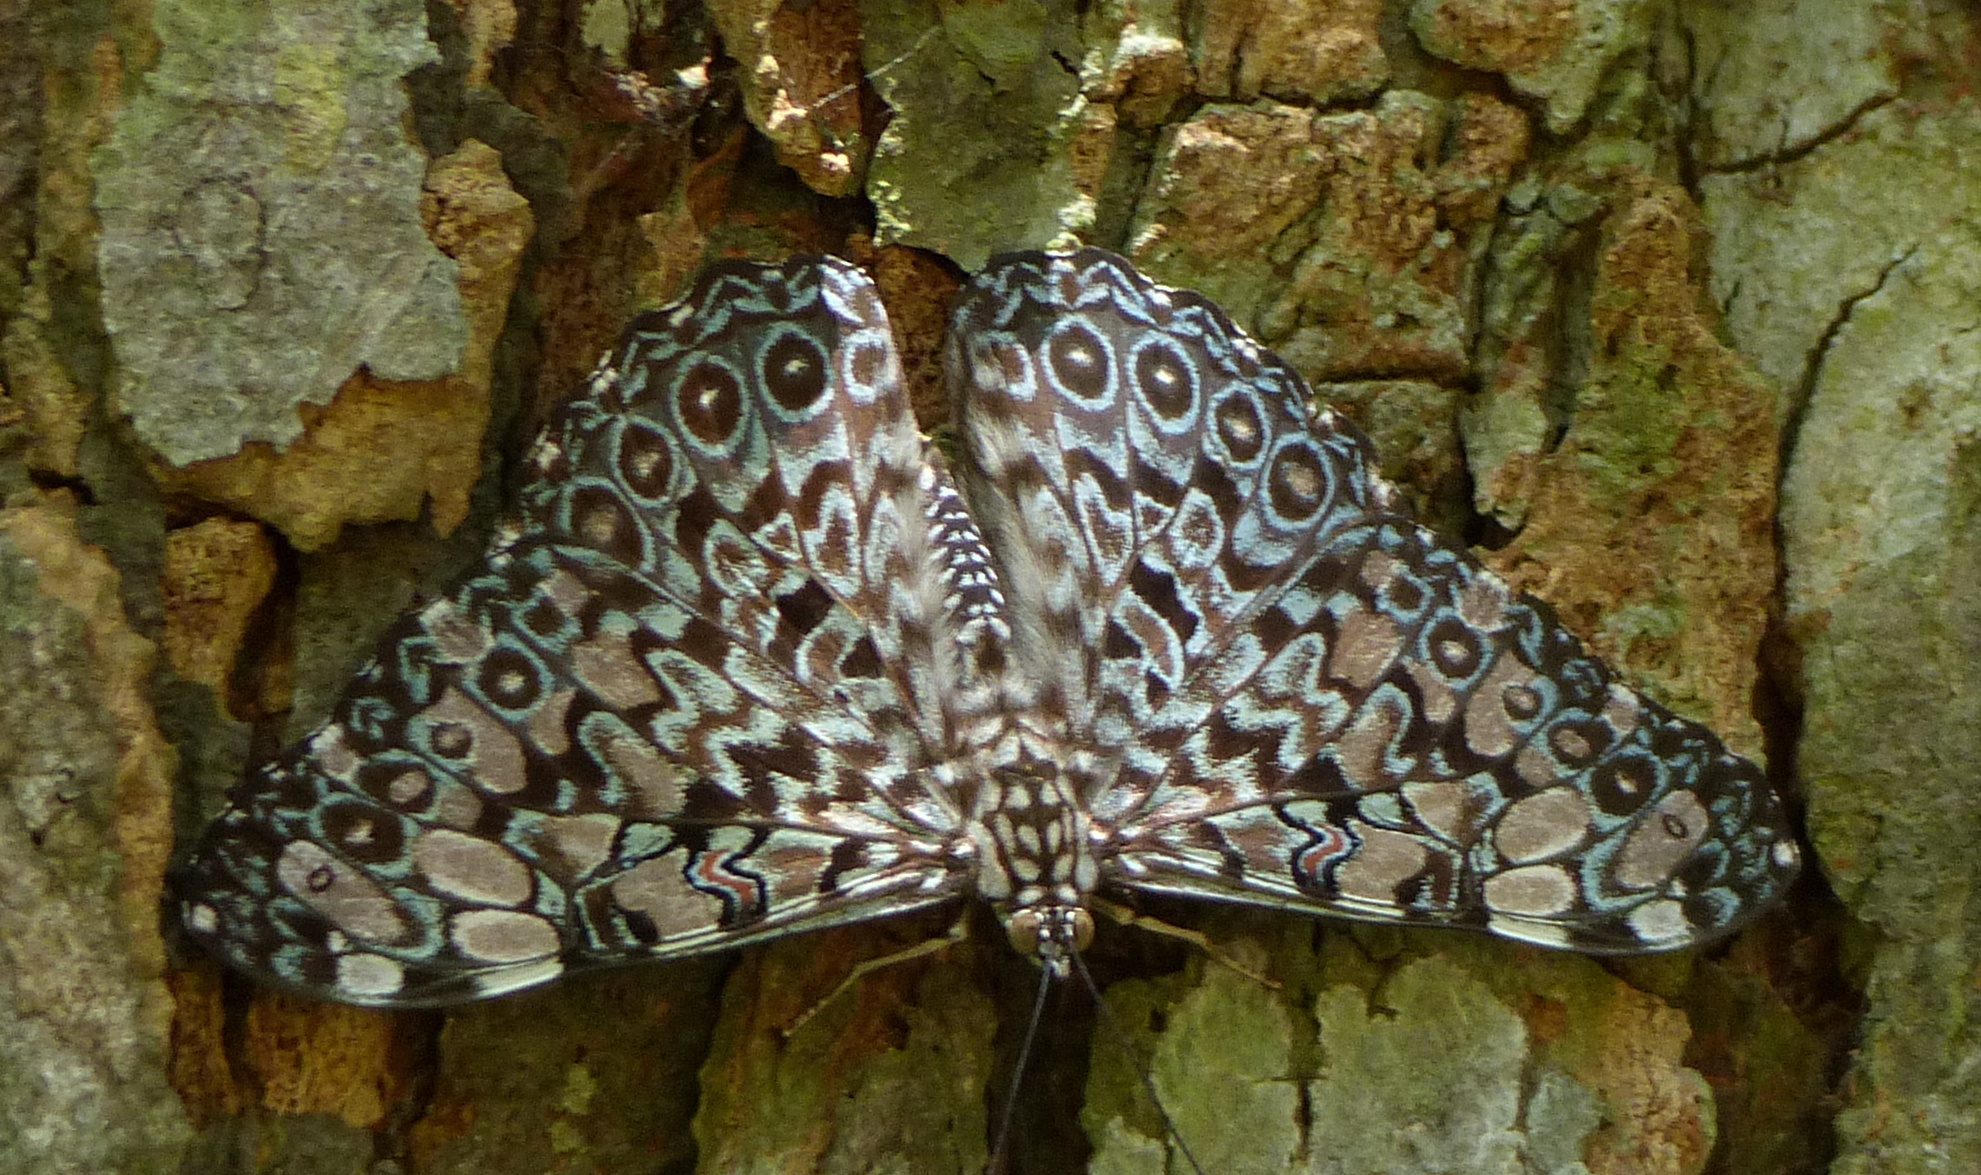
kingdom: Animalia
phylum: Arthropoda
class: Insecta
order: Lepidoptera
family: Nymphalidae
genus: Hamadryas
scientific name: Hamadryas feronia
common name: Variable cracker
